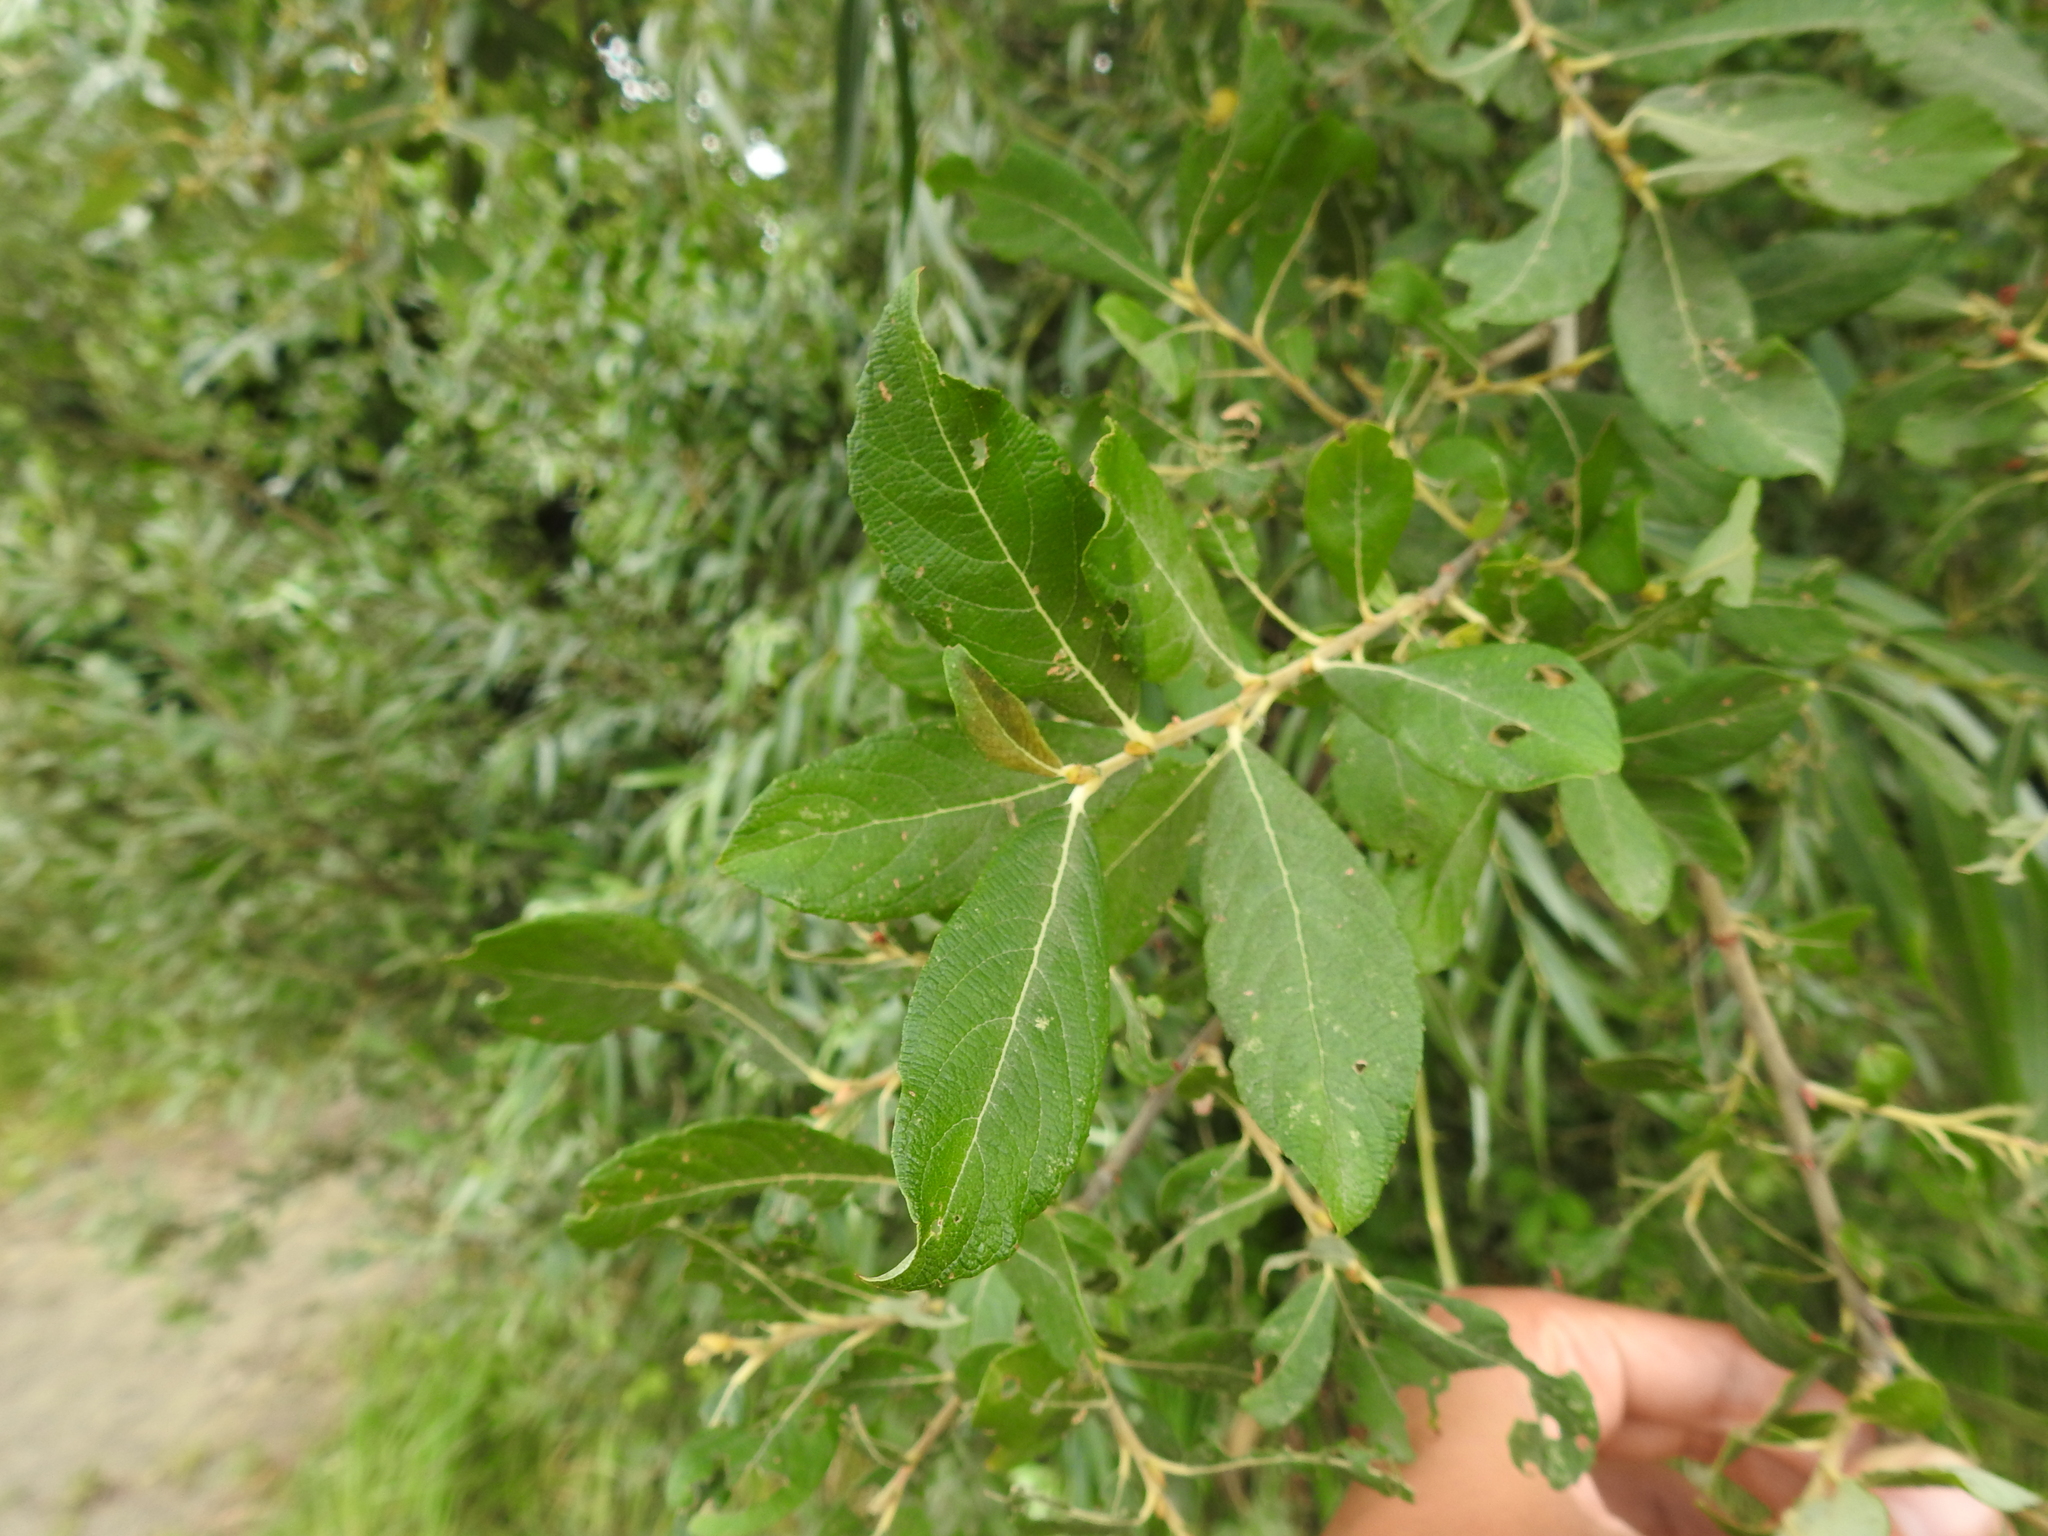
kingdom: Plantae
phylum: Tracheophyta
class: Magnoliopsida
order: Malpighiales
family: Salicaceae
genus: Salix
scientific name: Salix cinerea
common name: Common sallow
